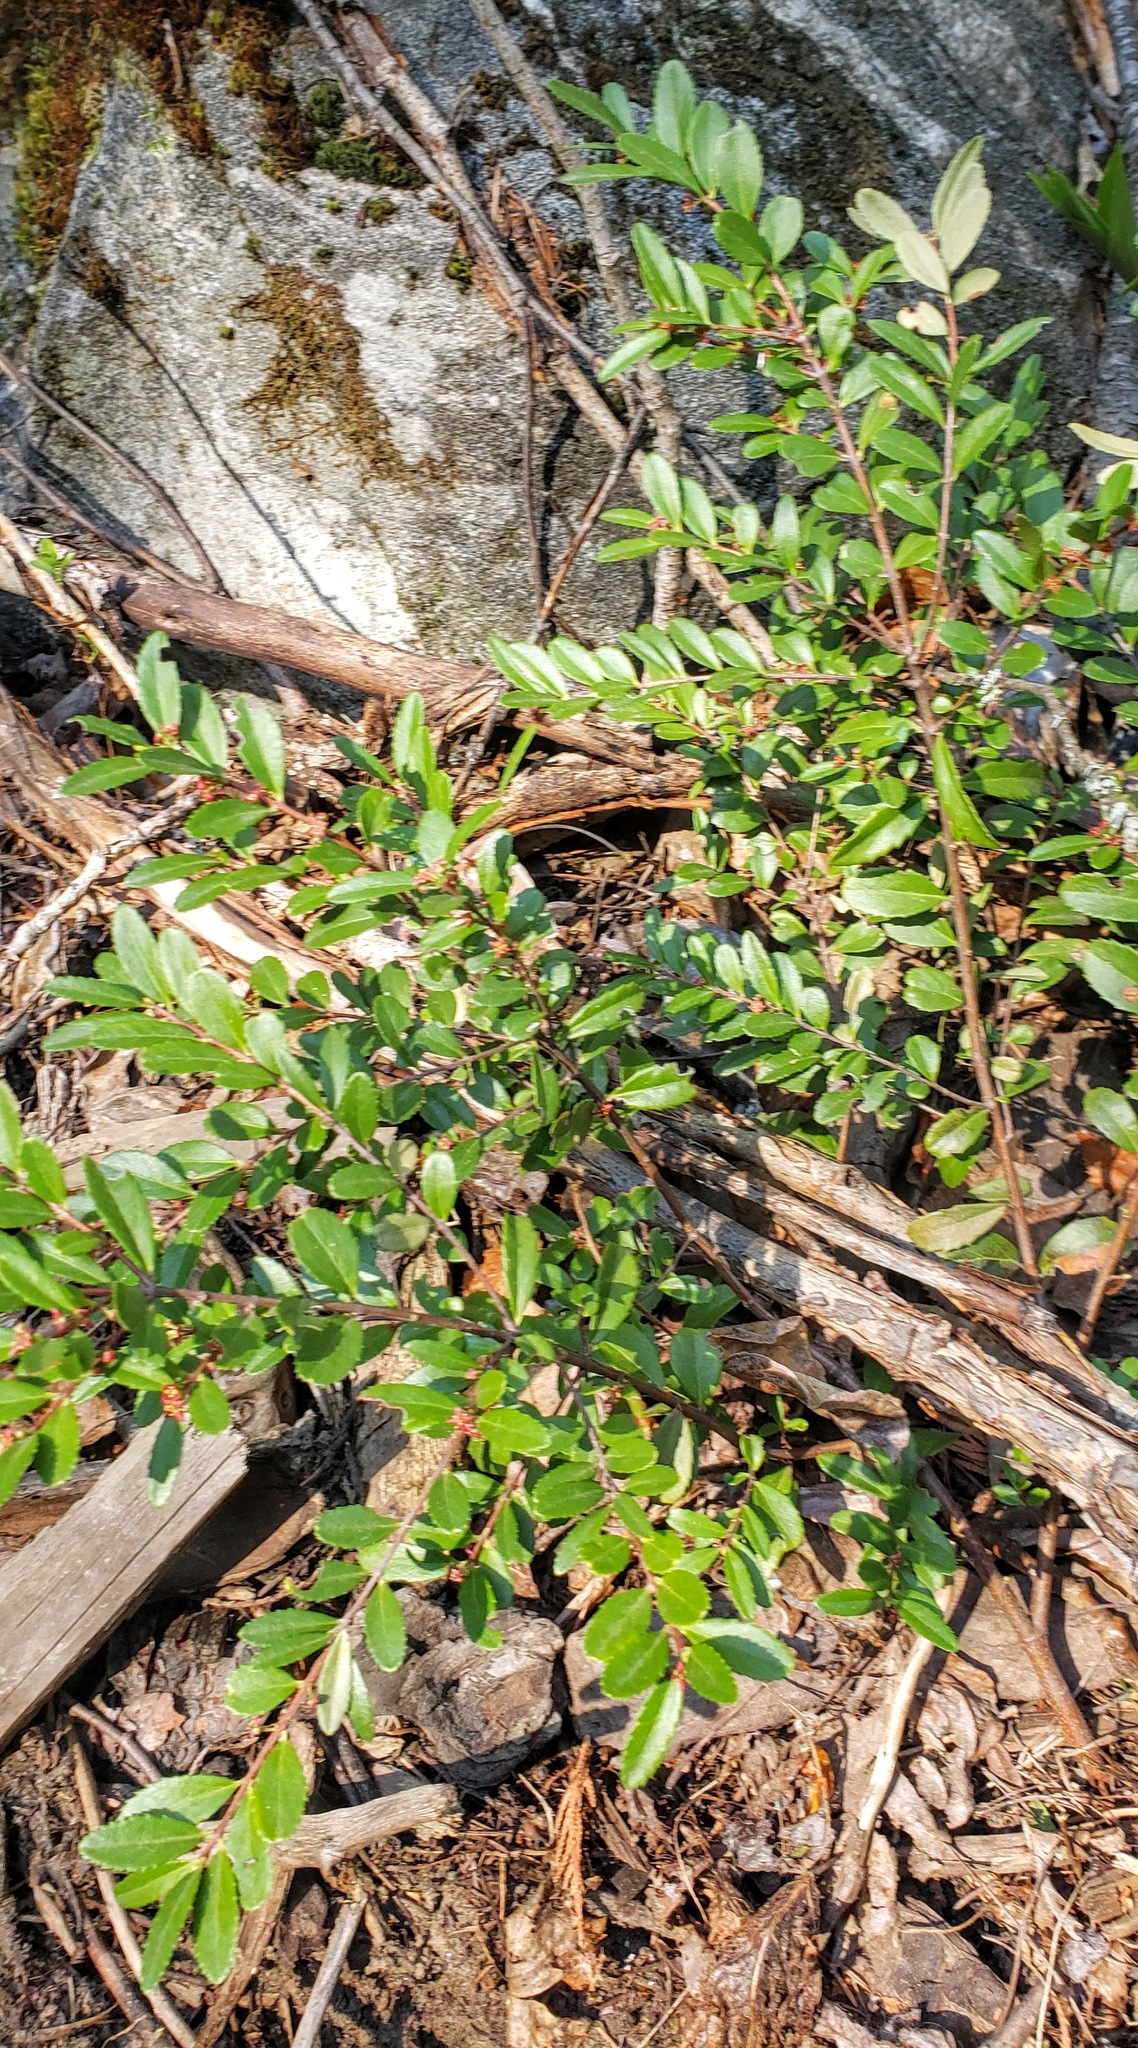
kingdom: Plantae
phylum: Tracheophyta
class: Magnoliopsida
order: Celastrales
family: Celastraceae
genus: Paxistima
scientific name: Paxistima myrsinites
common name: Mountain-lover
